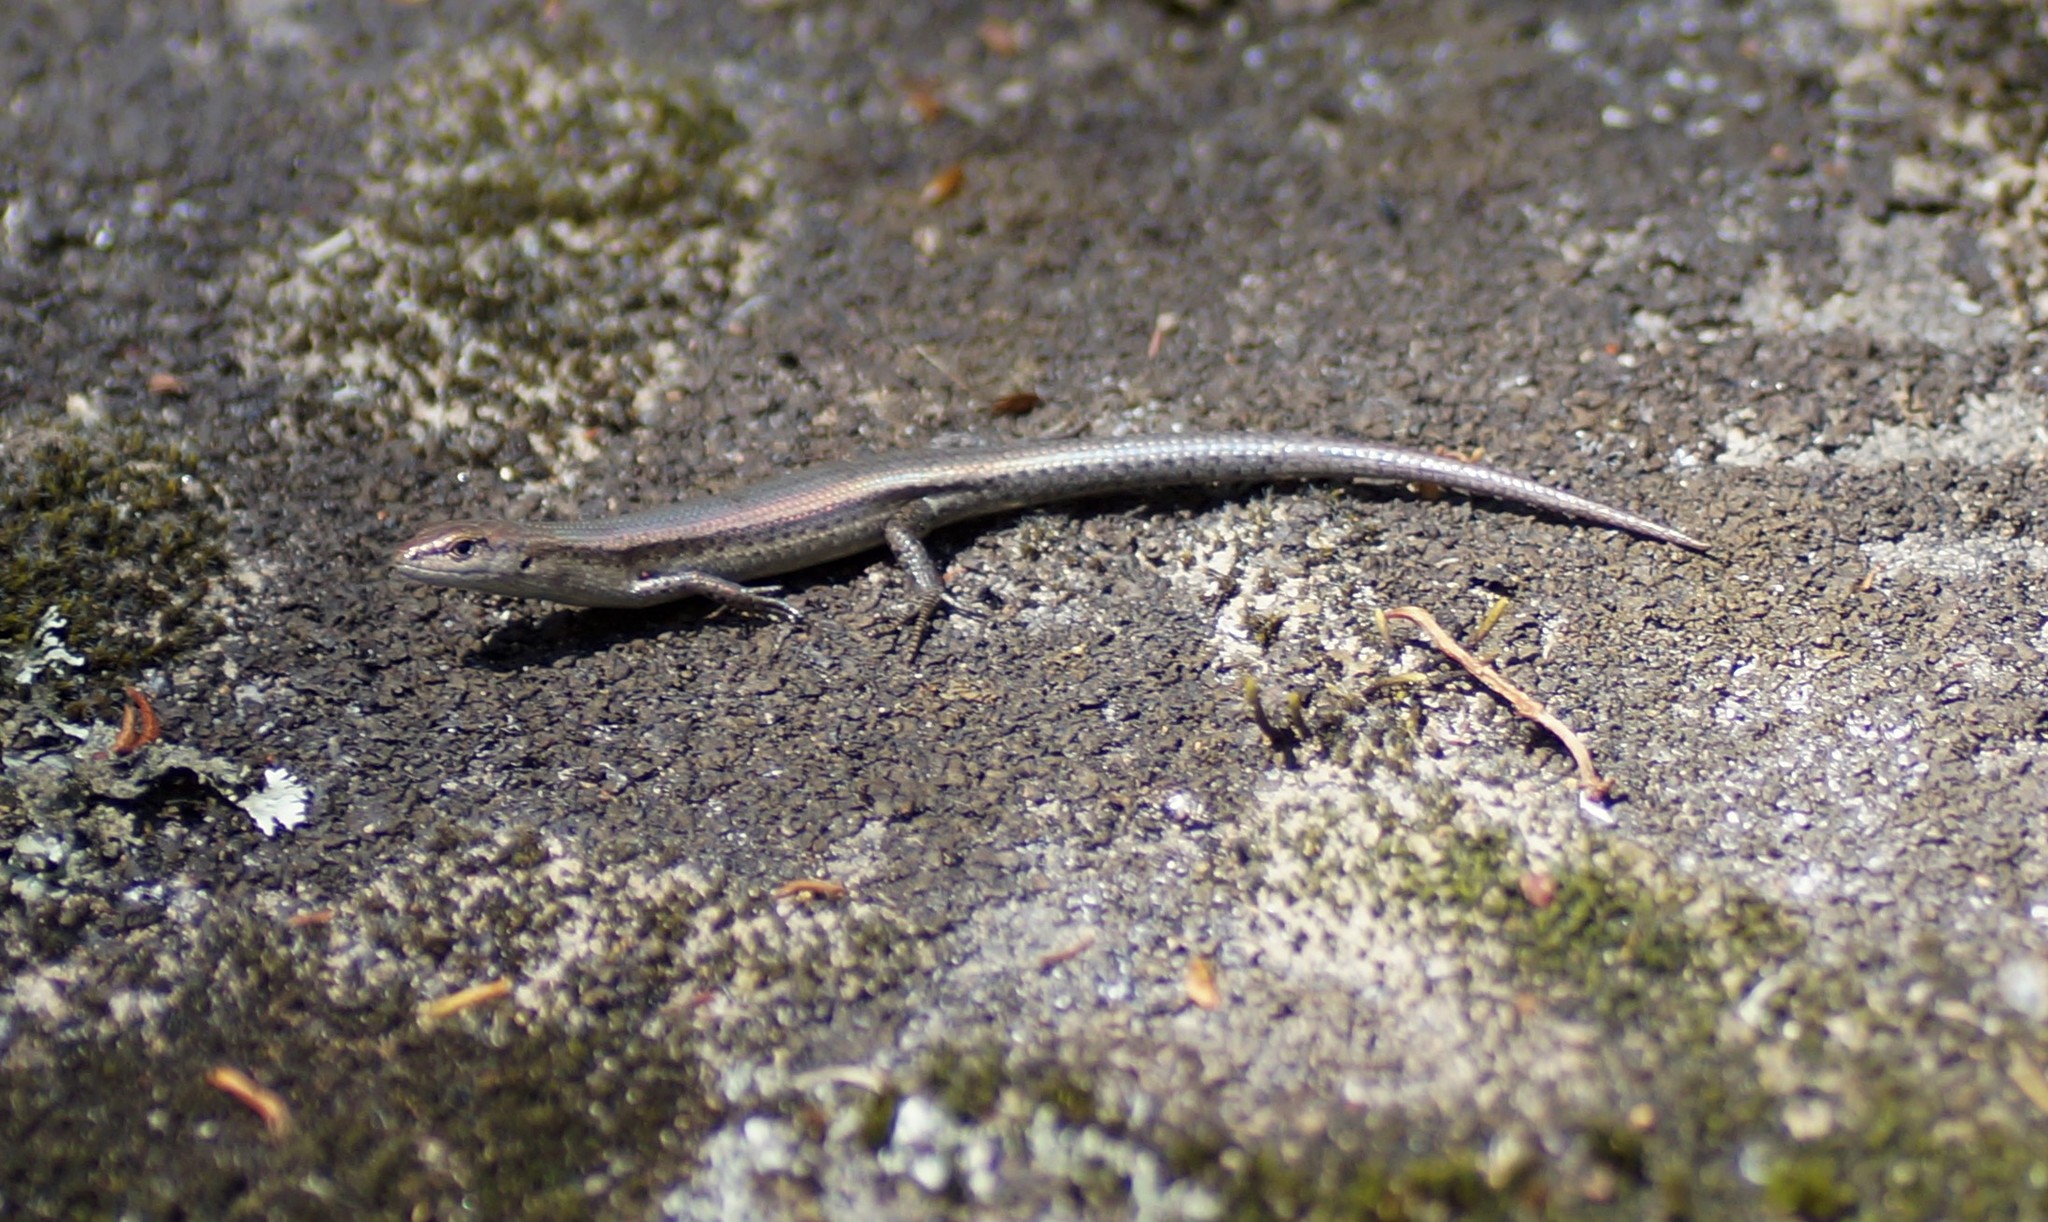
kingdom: Animalia
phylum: Chordata
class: Squamata
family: Scincidae
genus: Lampropholis
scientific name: Lampropholis guichenoti
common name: Garden skink
